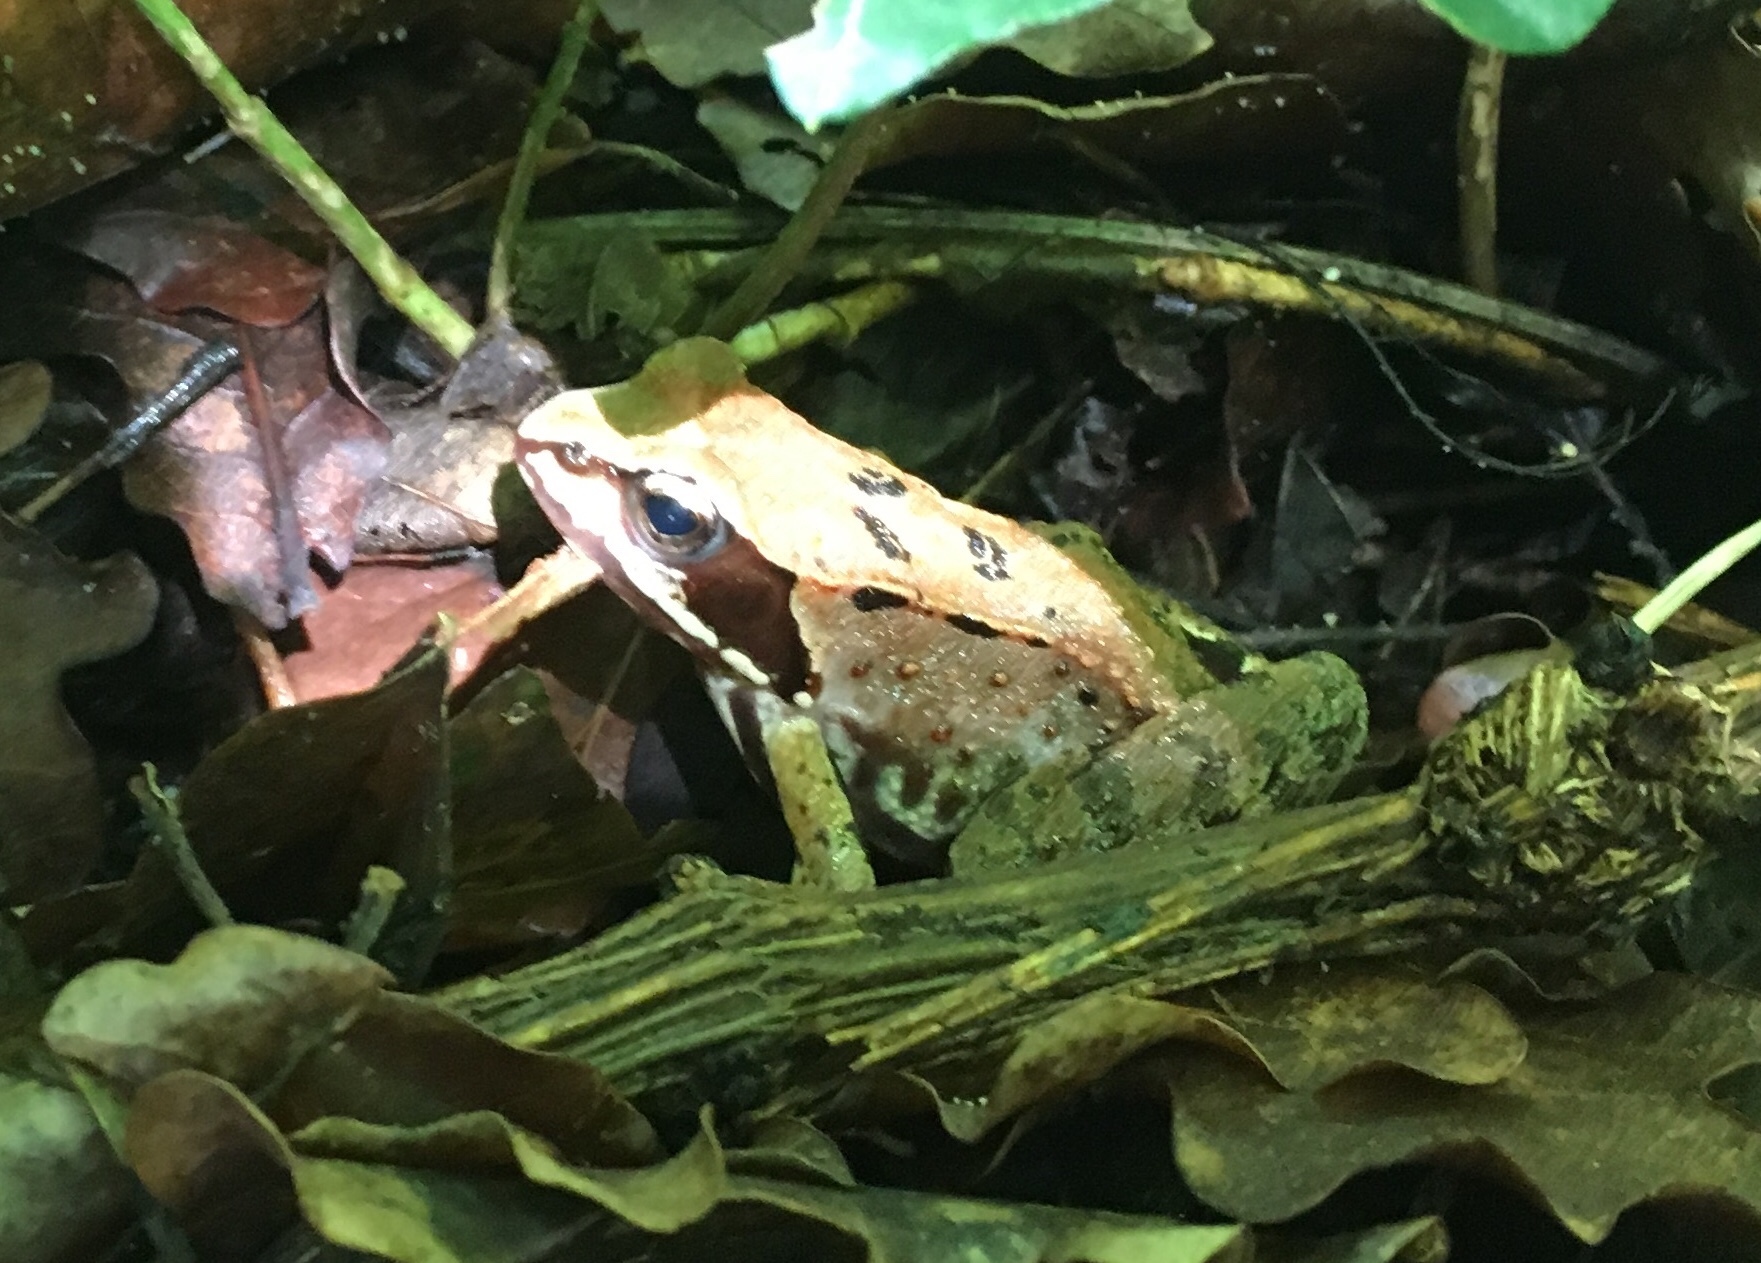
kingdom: Animalia
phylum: Chordata
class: Amphibia
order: Anura
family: Ranidae
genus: Rana
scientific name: Rana temporaria
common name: Common frog
